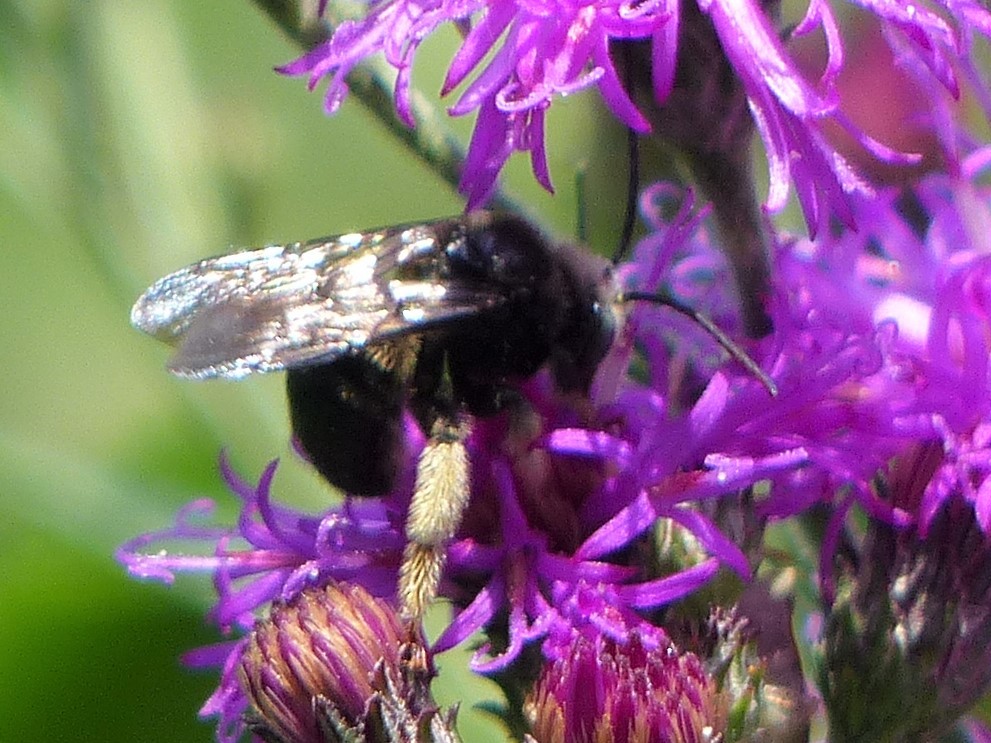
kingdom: Animalia
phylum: Arthropoda
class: Insecta
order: Hymenoptera
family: Apidae
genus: Melissodes
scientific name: Melissodes bimaculatus
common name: Two-spotted long-horned bee
